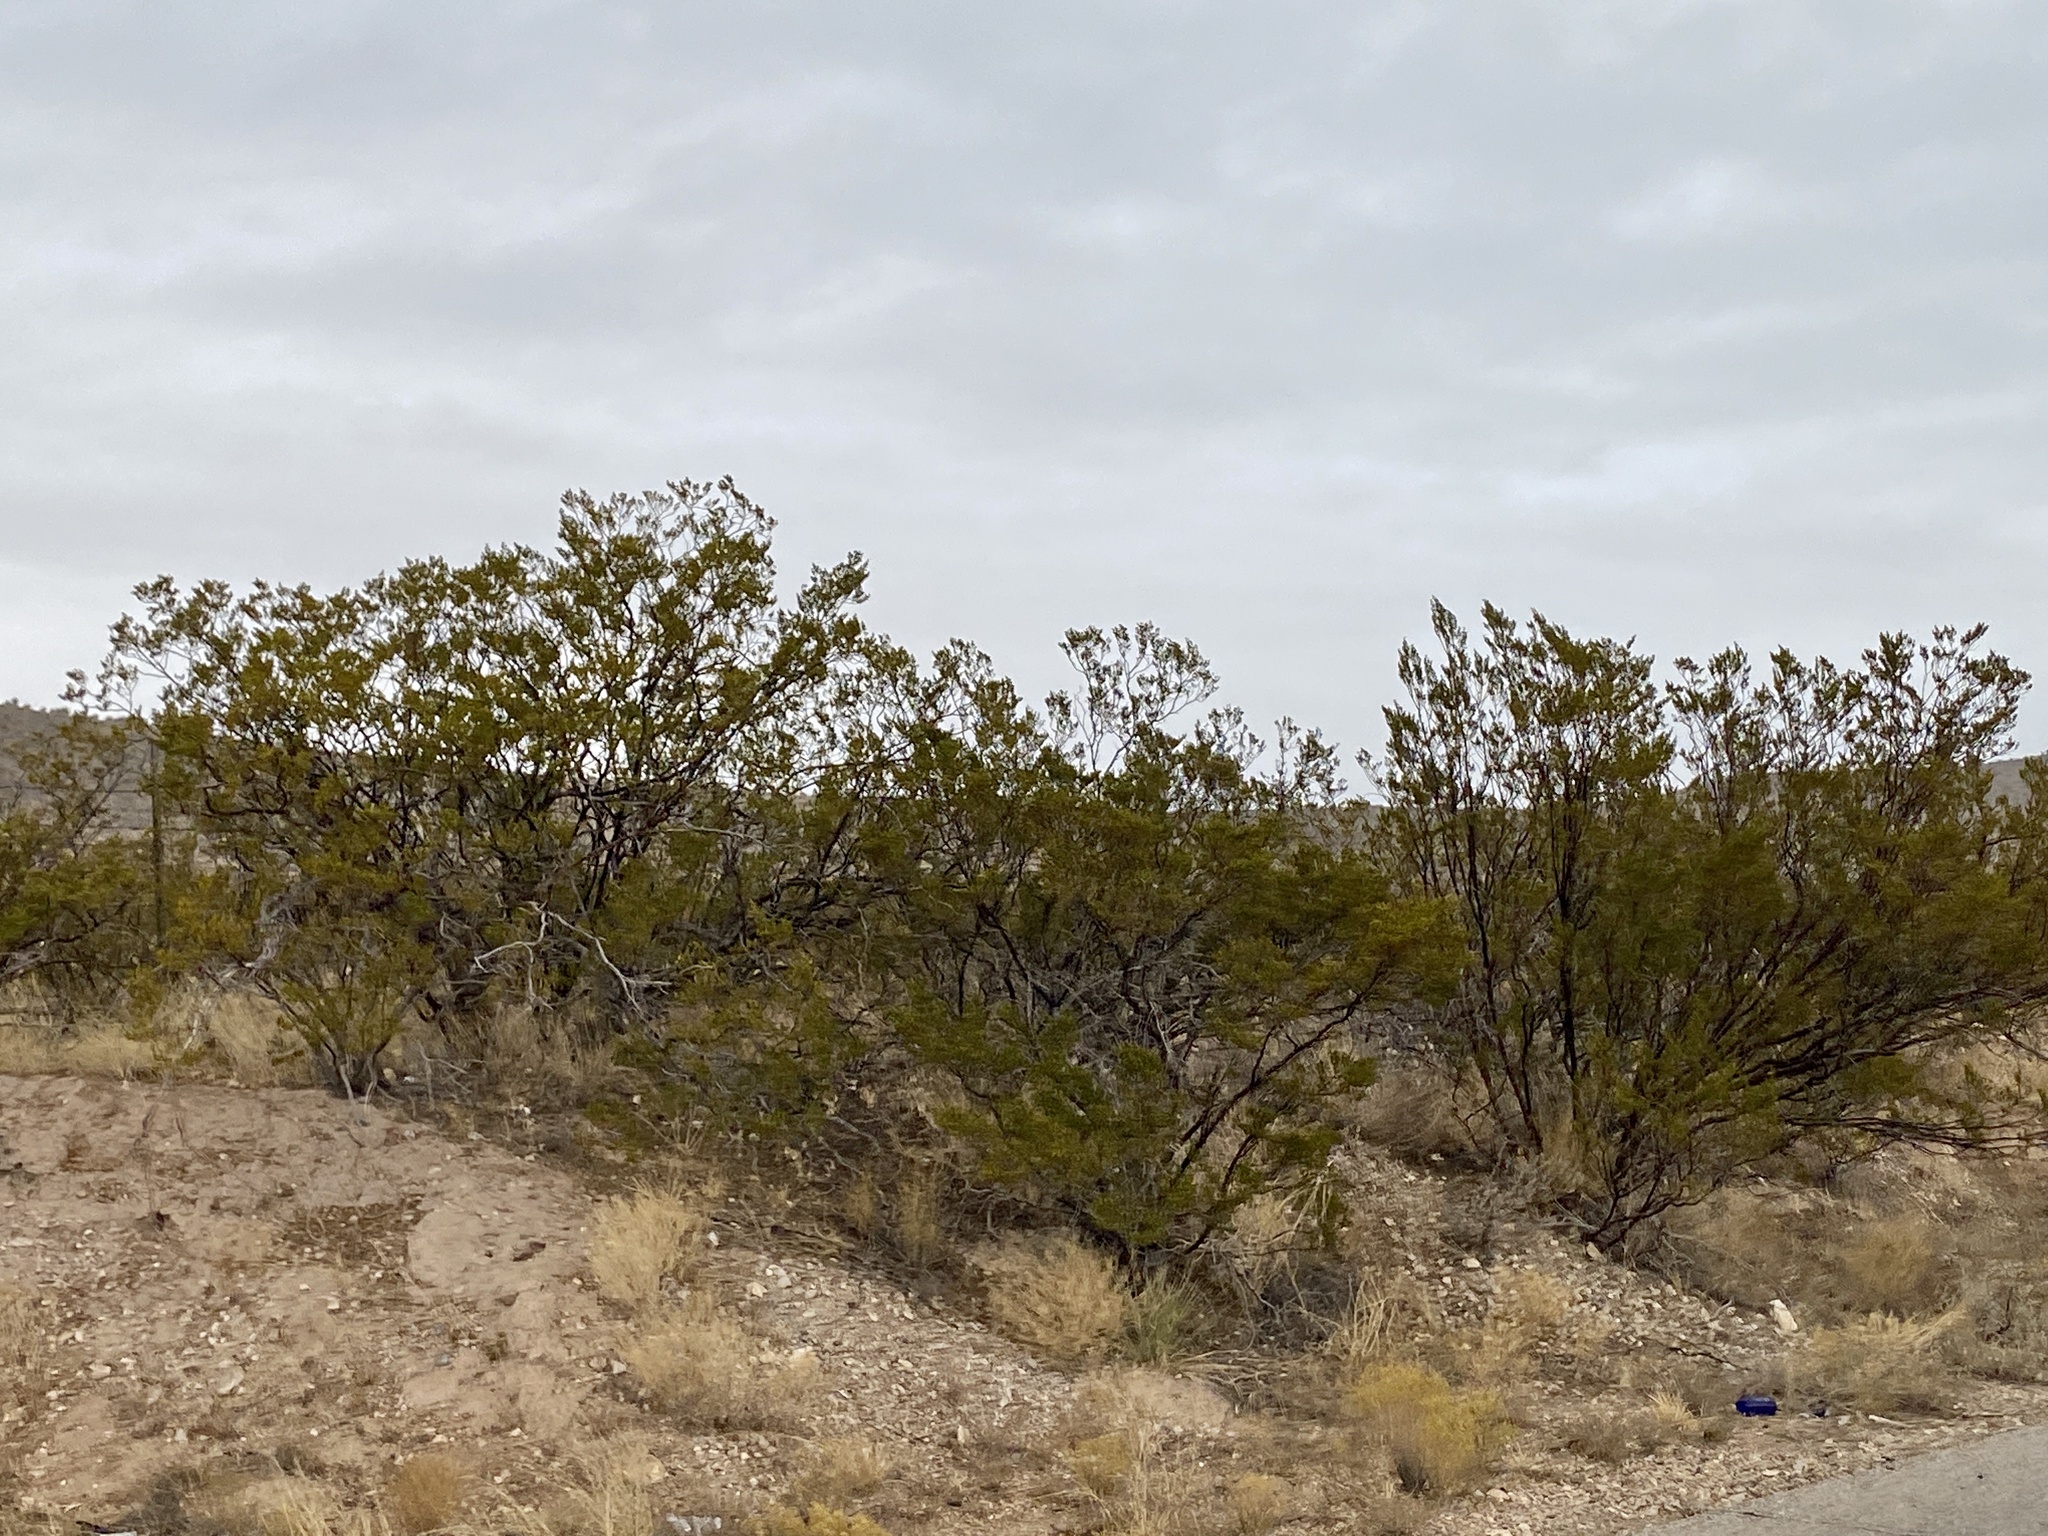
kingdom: Plantae
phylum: Tracheophyta
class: Magnoliopsida
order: Zygophyllales
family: Zygophyllaceae
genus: Larrea
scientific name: Larrea tridentata
